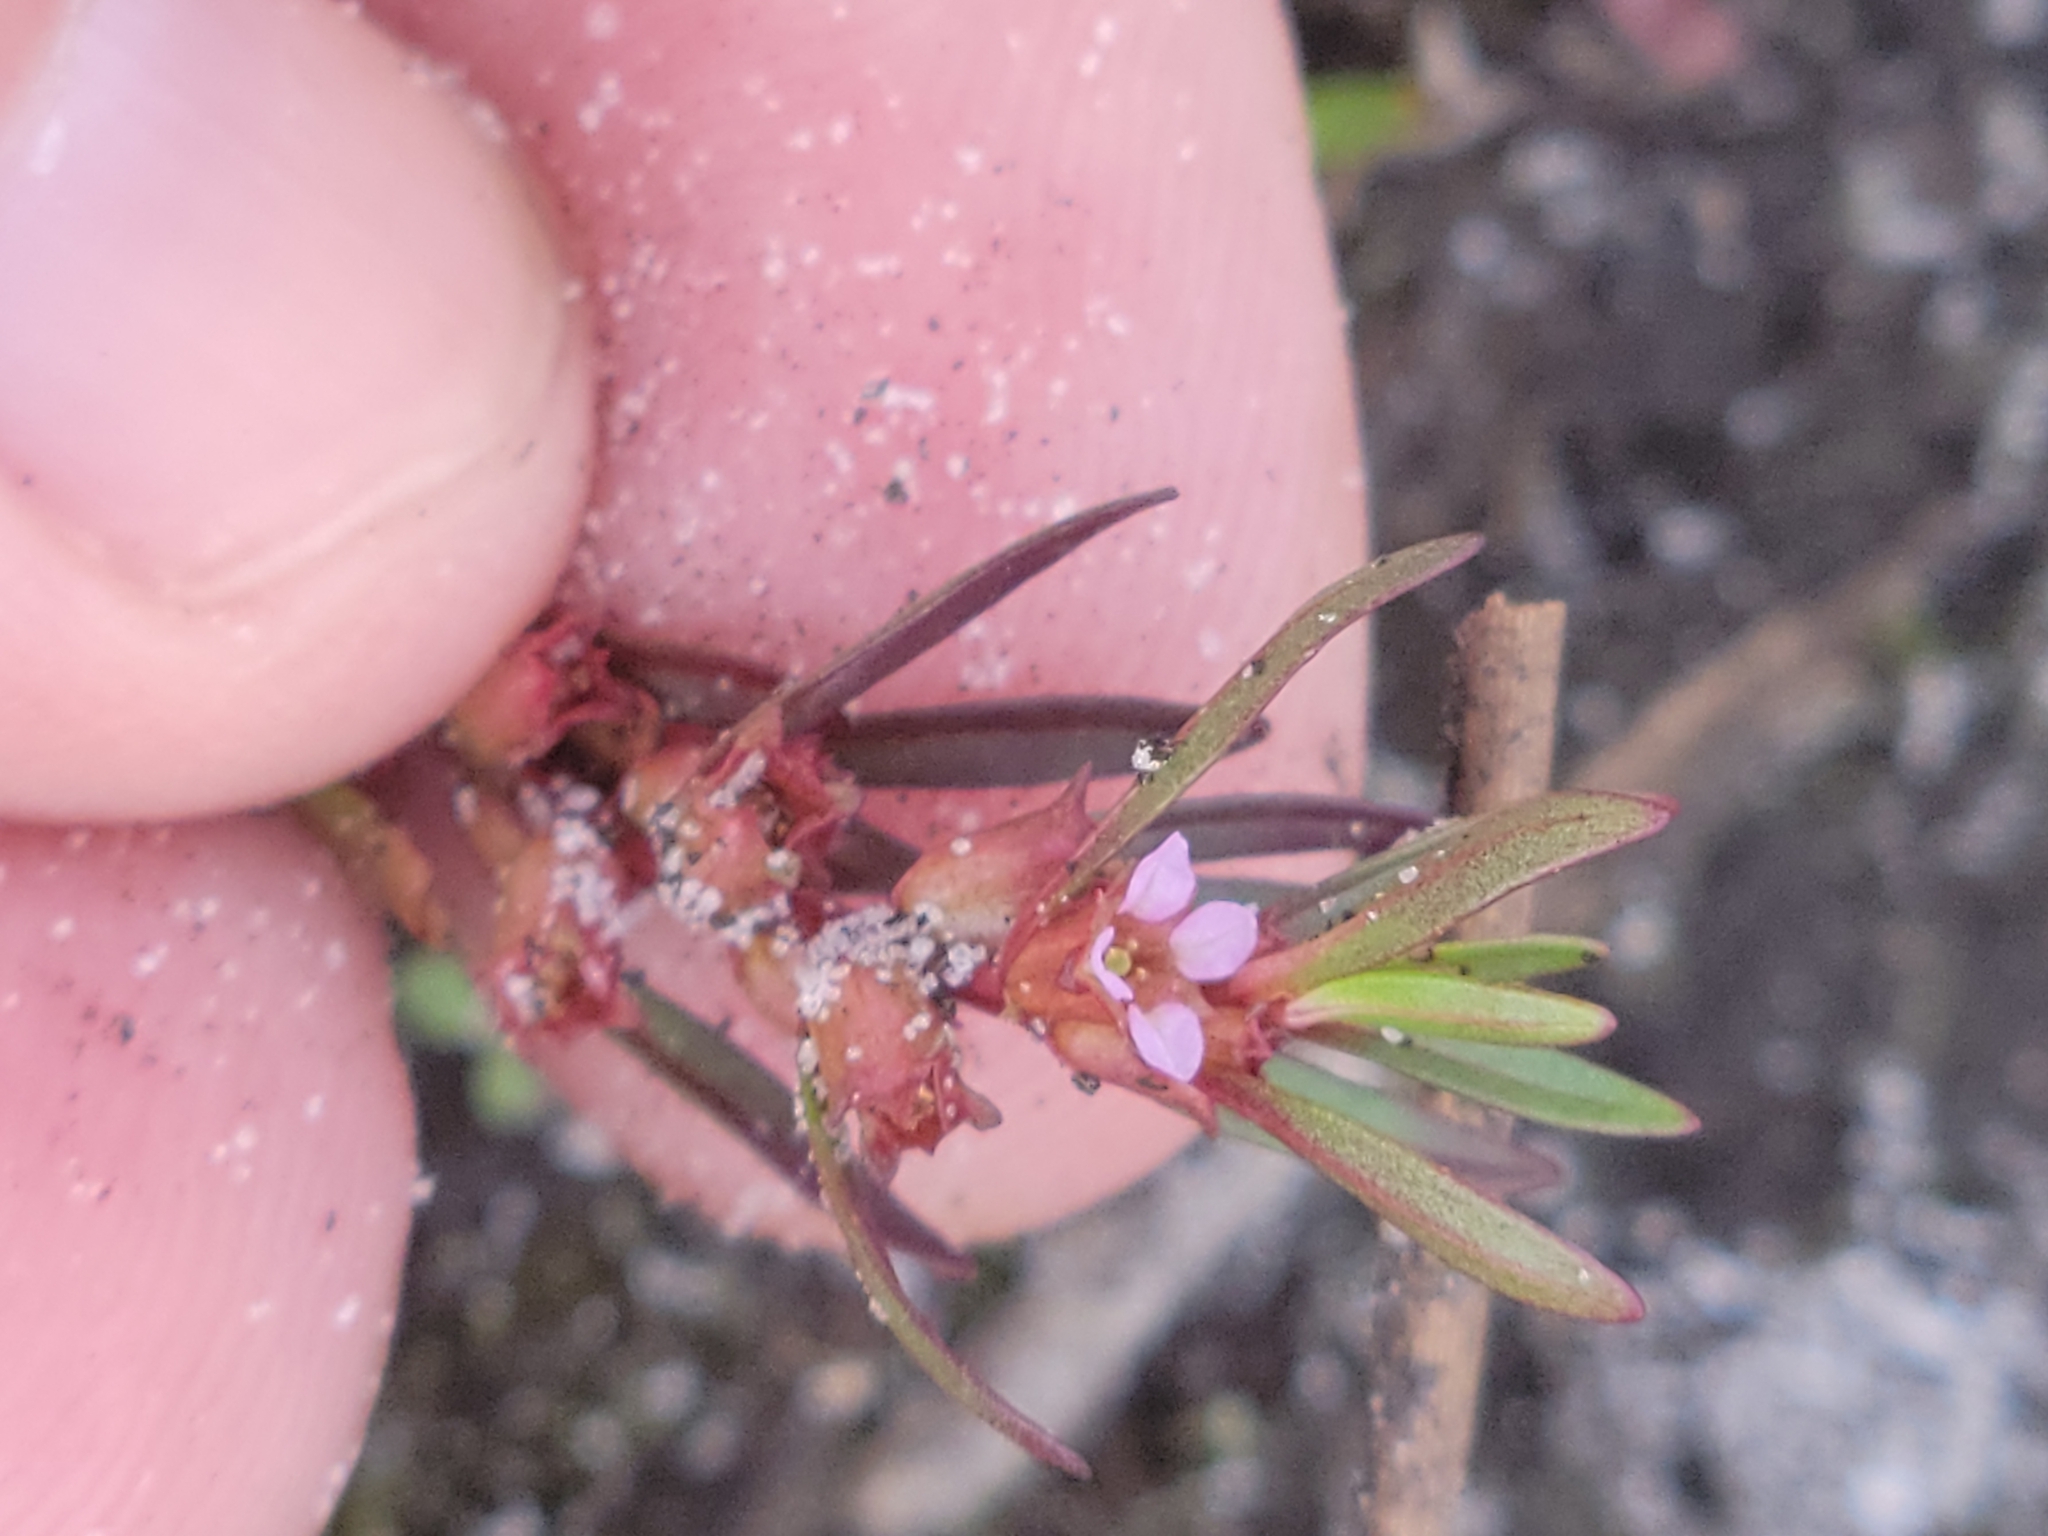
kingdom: Plantae
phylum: Tracheophyta
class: Magnoliopsida
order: Myrtales
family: Lythraceae
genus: Rotala
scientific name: Rotala ramosior
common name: Lowland rotala
